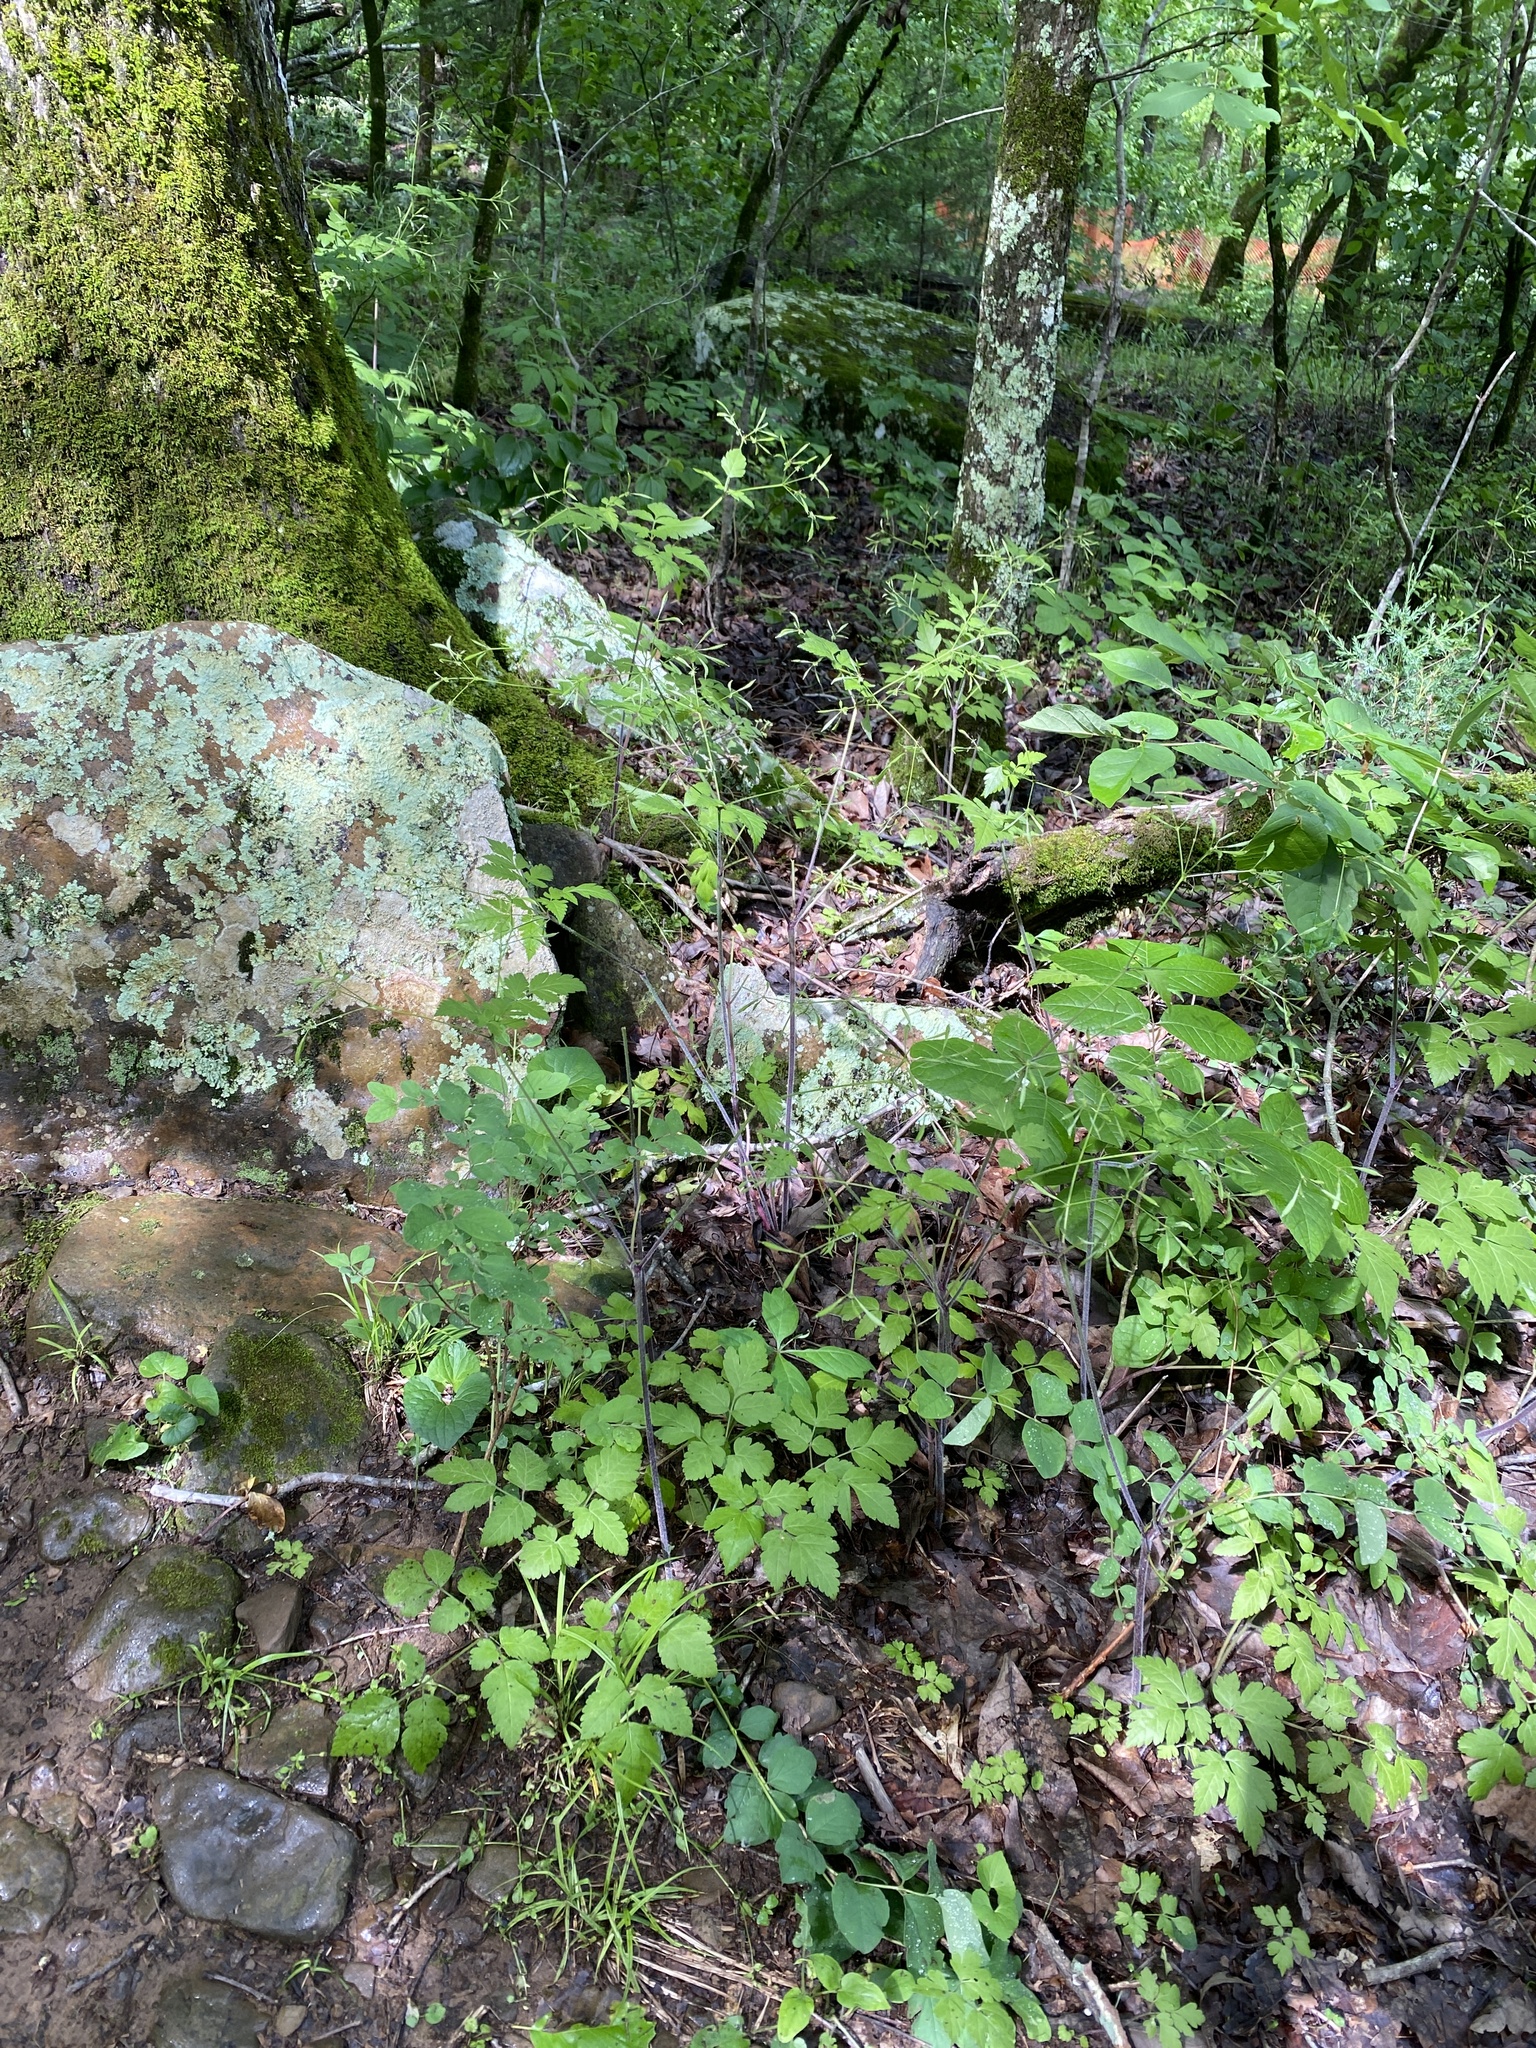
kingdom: Plantae
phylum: Tracheophyta
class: Magnoliopsida
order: Apiales
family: Apiaceae
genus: Osmorhiza
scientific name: Osmorhiza longistylis
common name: Smooth sweet cicely
